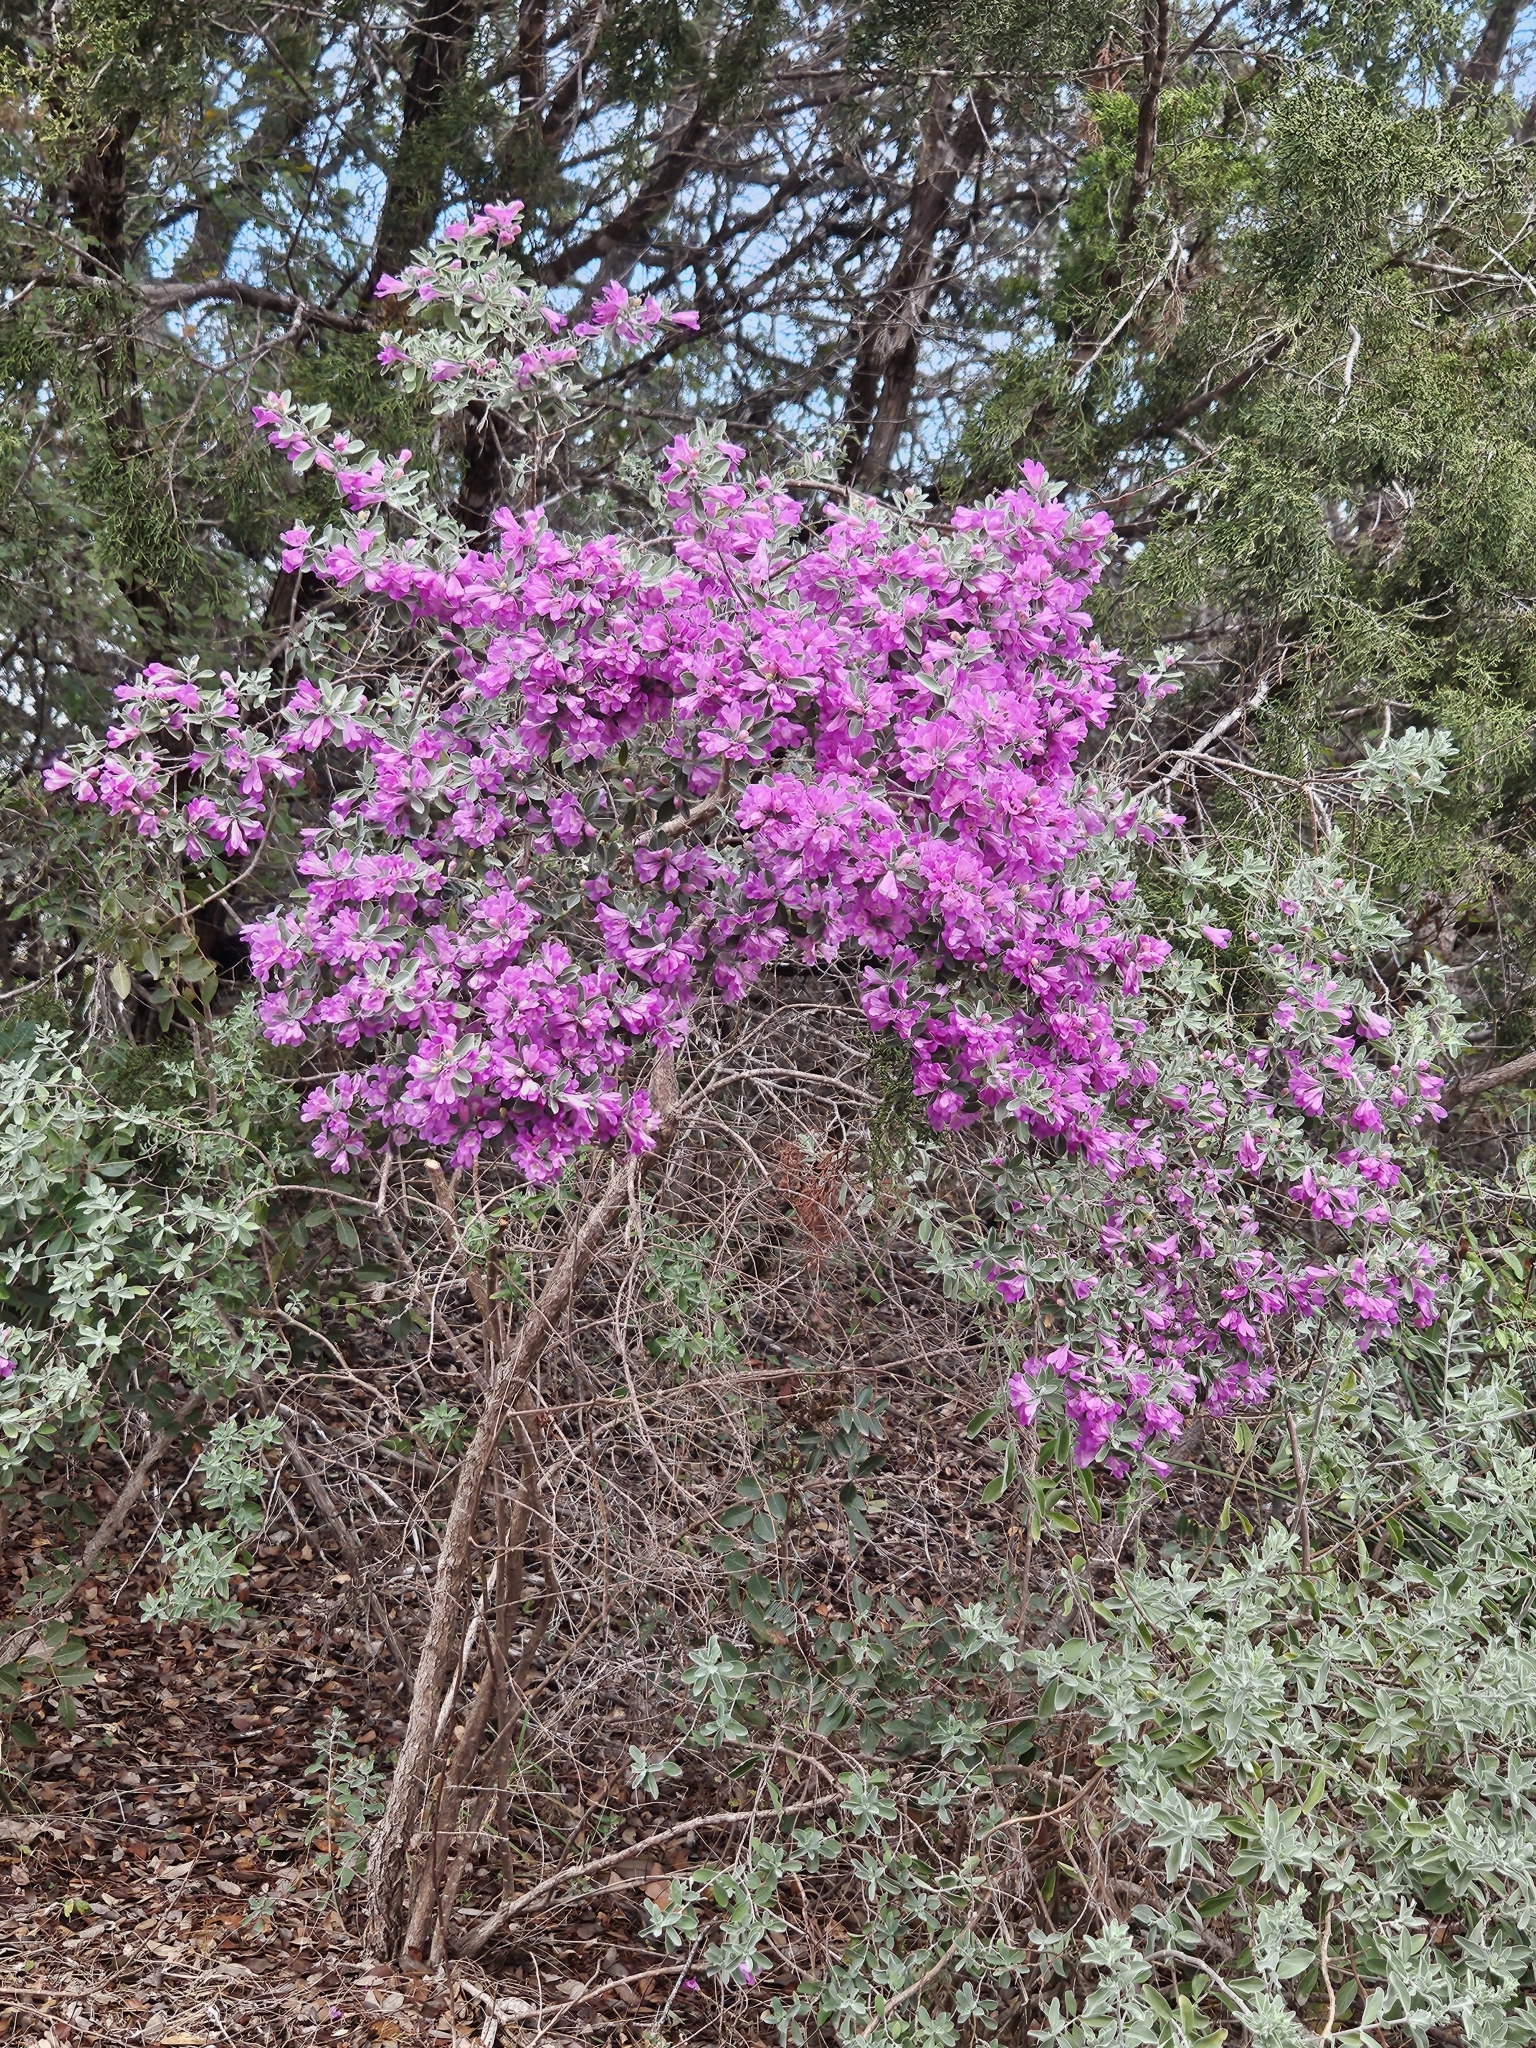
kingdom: Plantae
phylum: Tracheophyta
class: Magnoliopsida
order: Lamiales
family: Scrophulariaceae
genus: Leucophyllum
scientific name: Leucophyllum frutescens
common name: Texas silverleaf
